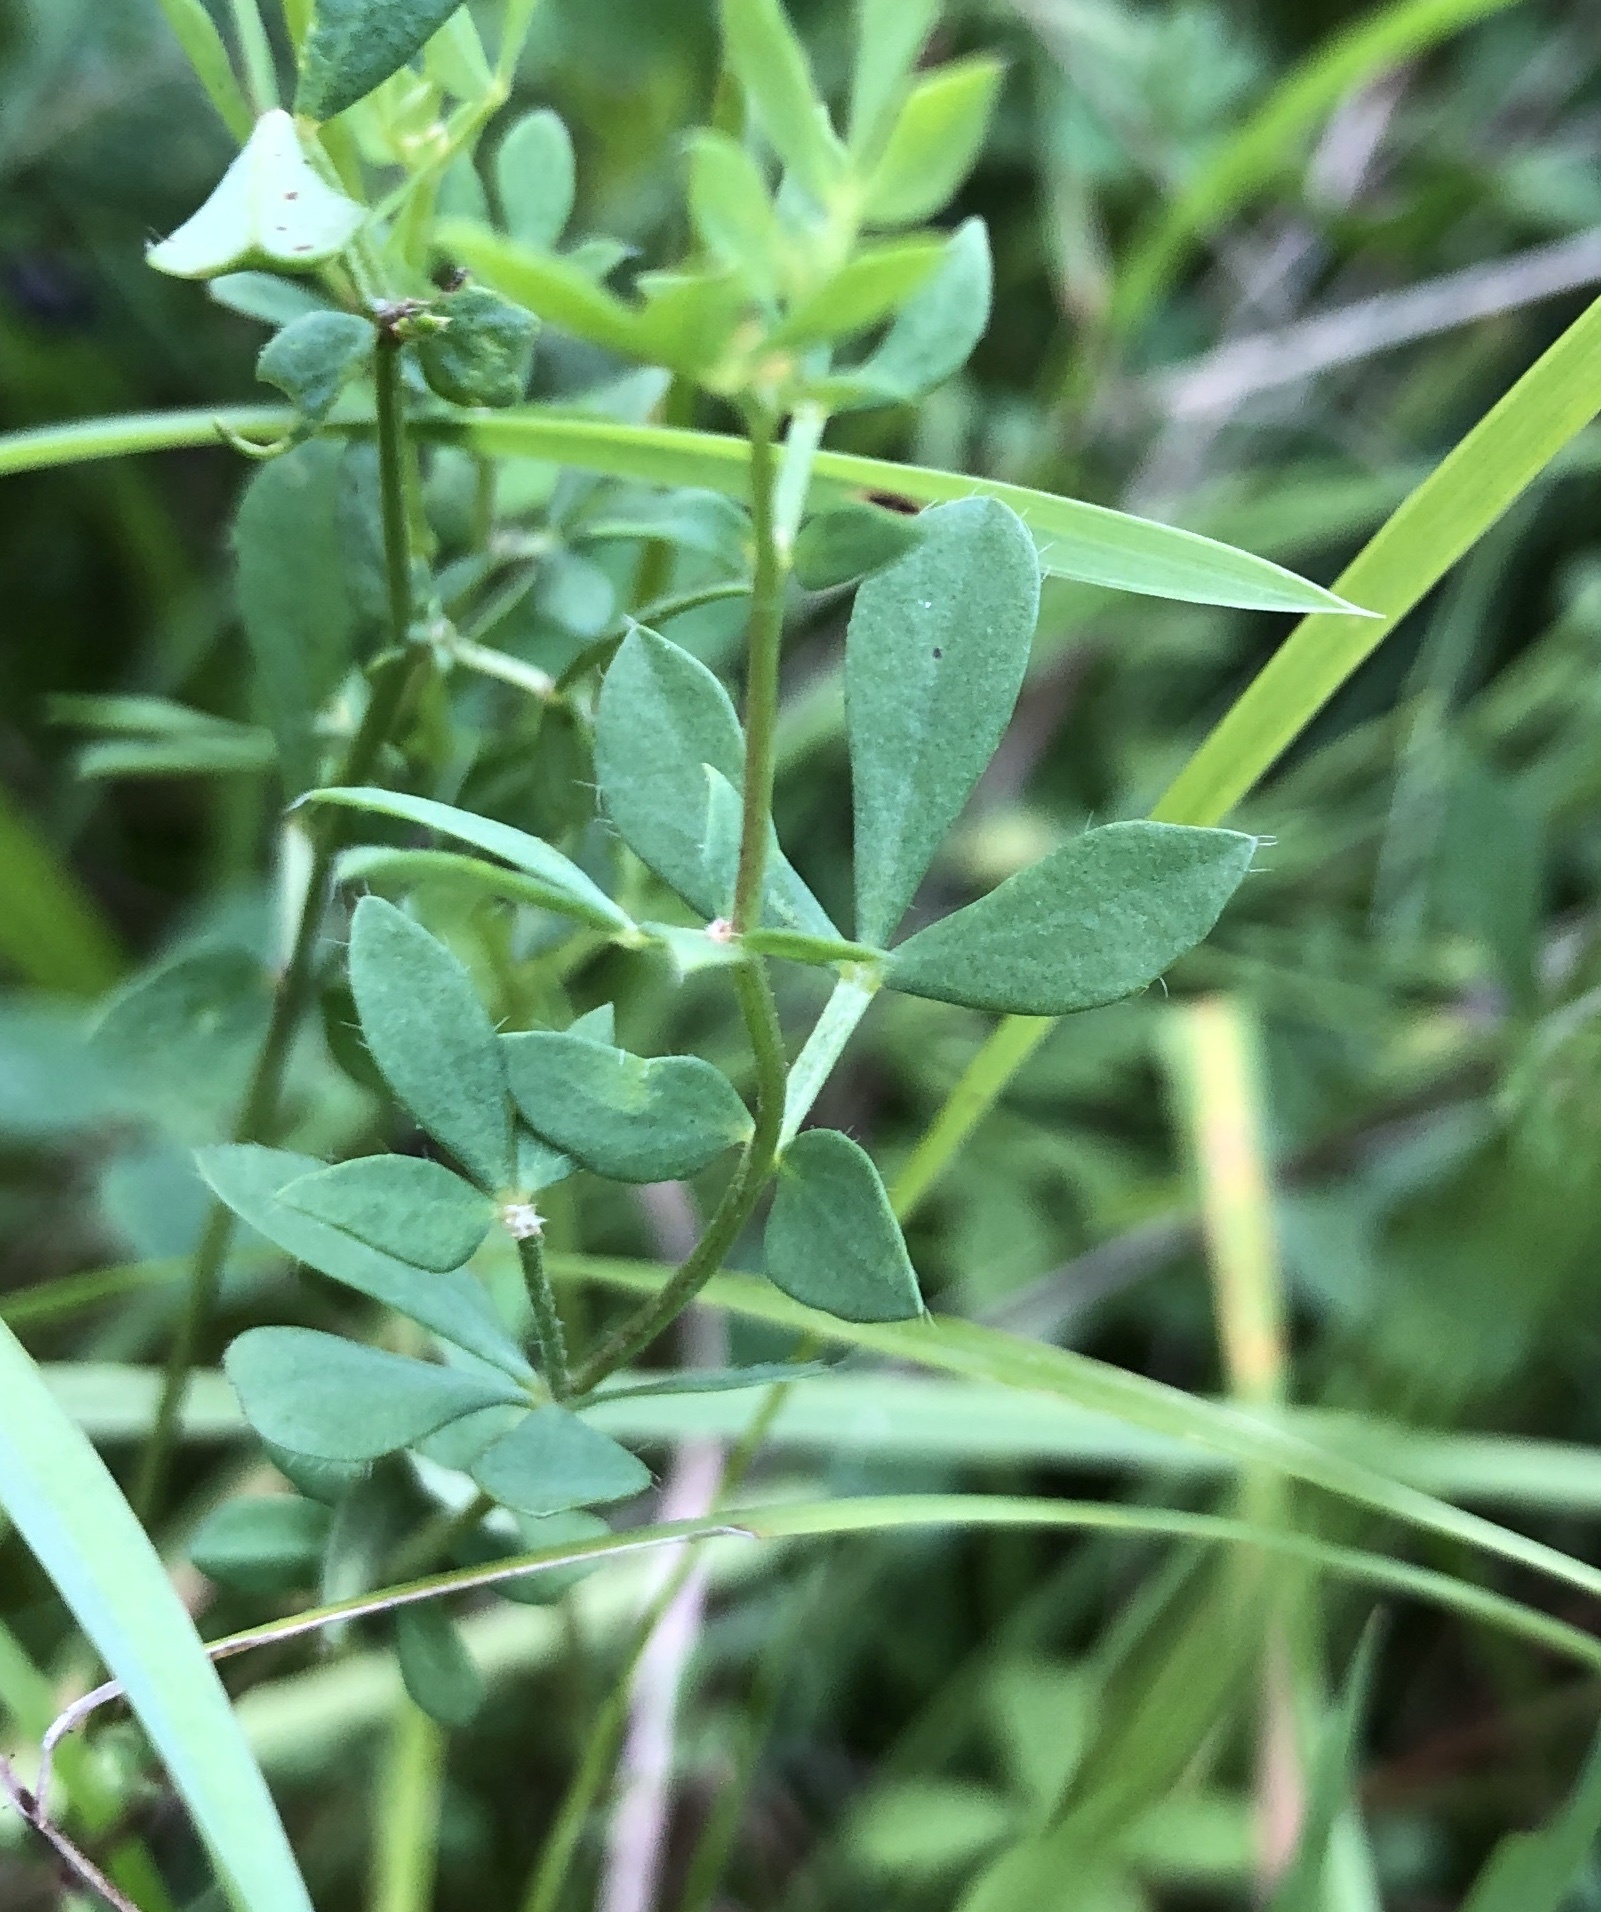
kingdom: Plantae
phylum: Tracheophyta
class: Magnoliopsida
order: Fabales
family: Fabaceae
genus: Lotus
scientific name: Lotus corniculatus
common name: Common bird's-foot-trefoil
